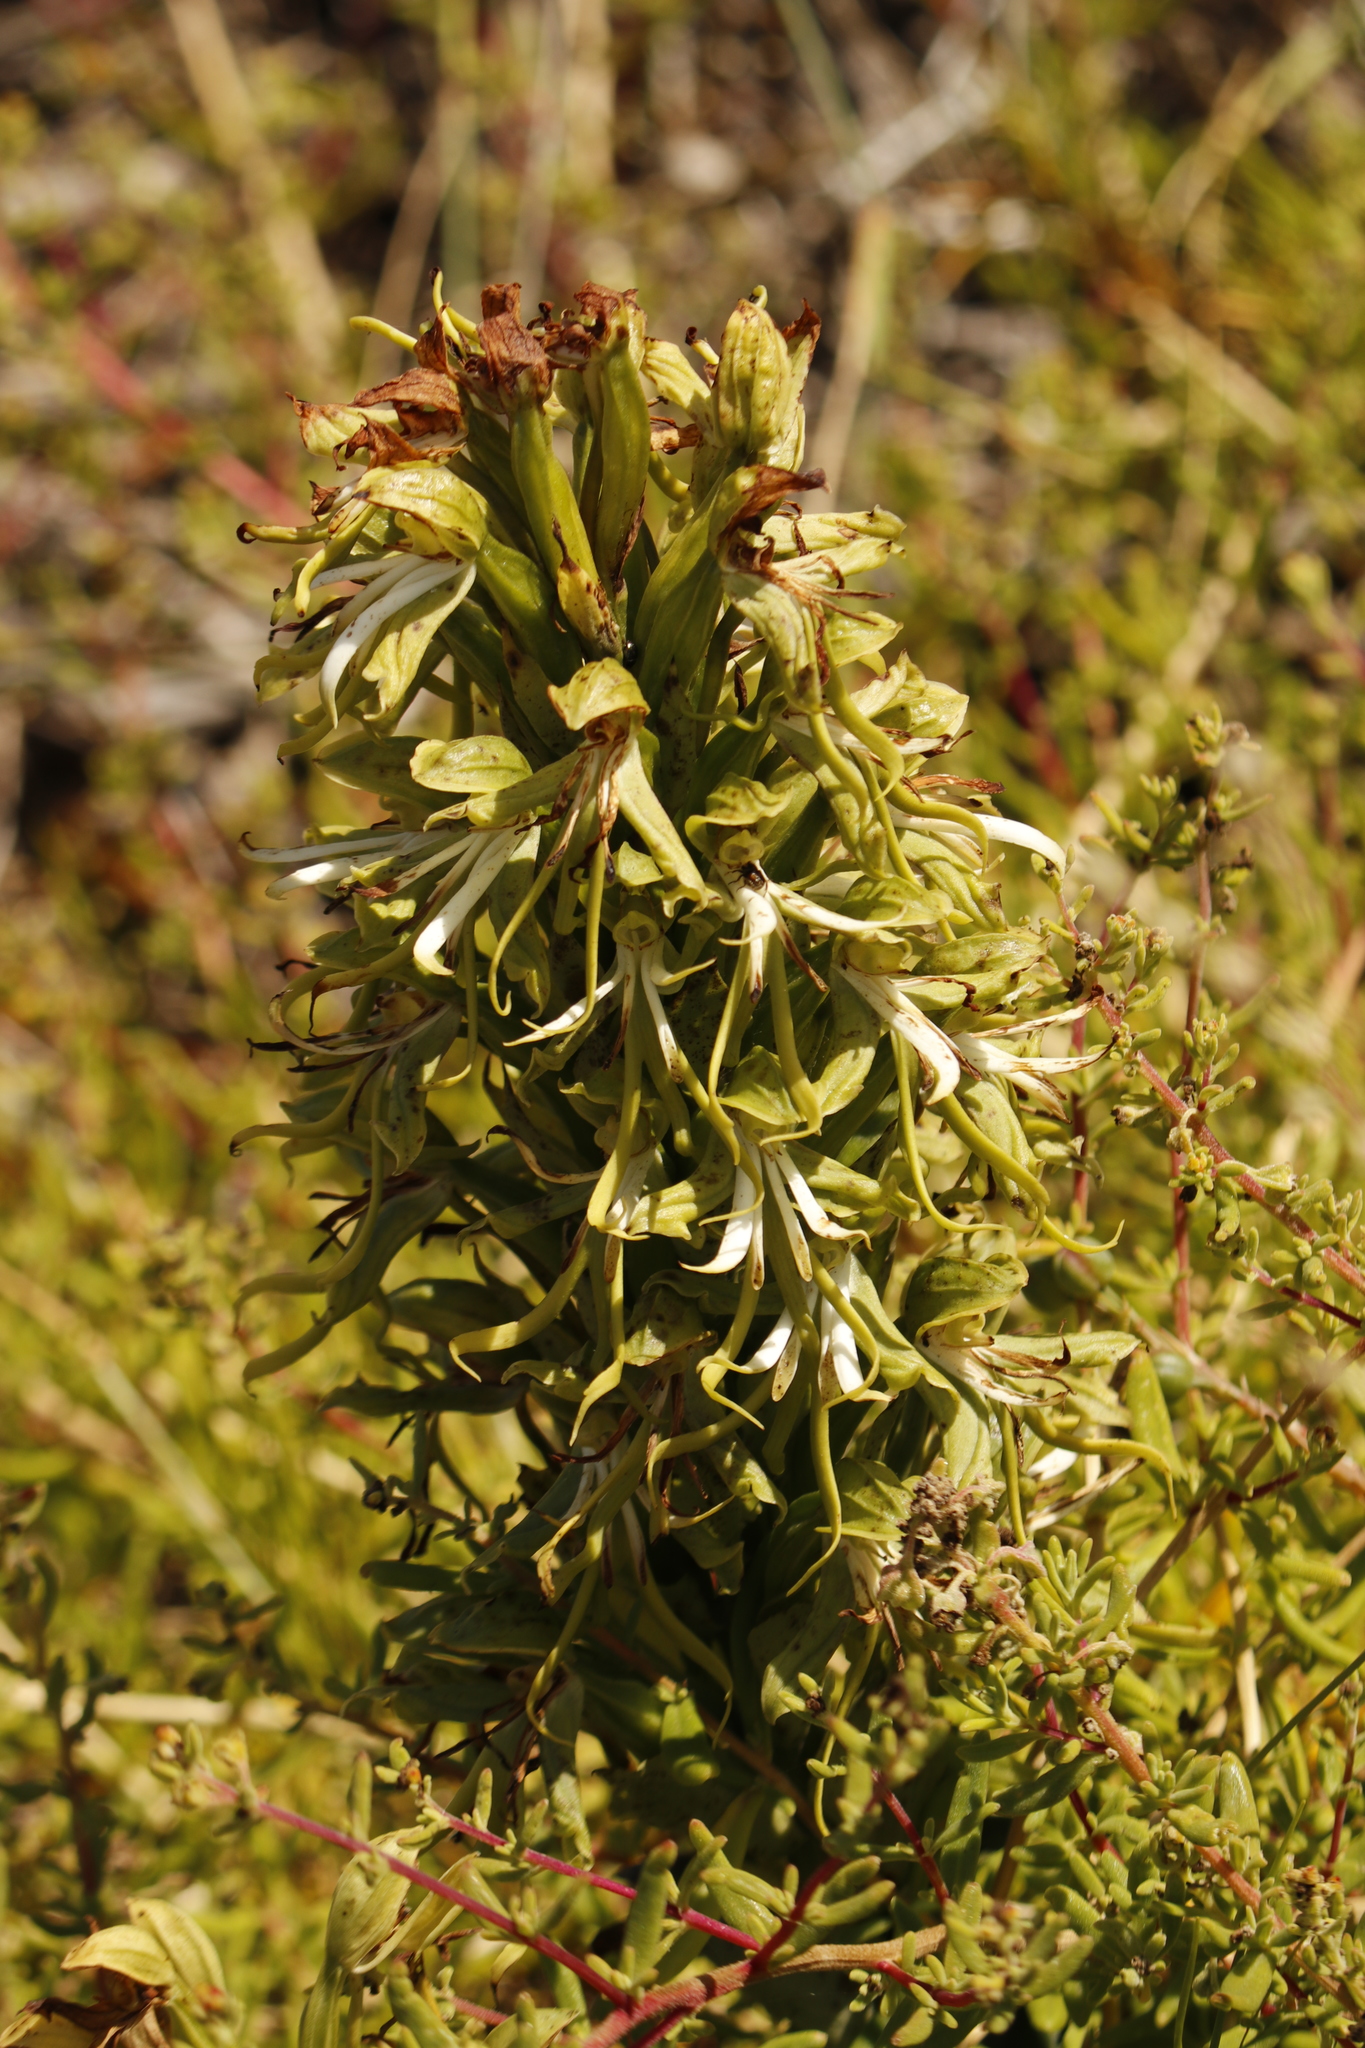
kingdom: Plantae
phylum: Tracheophyta
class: Liliopsida
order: Asparagales
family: Orchidaceae
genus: Bonatea
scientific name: Bonatea speciosa
